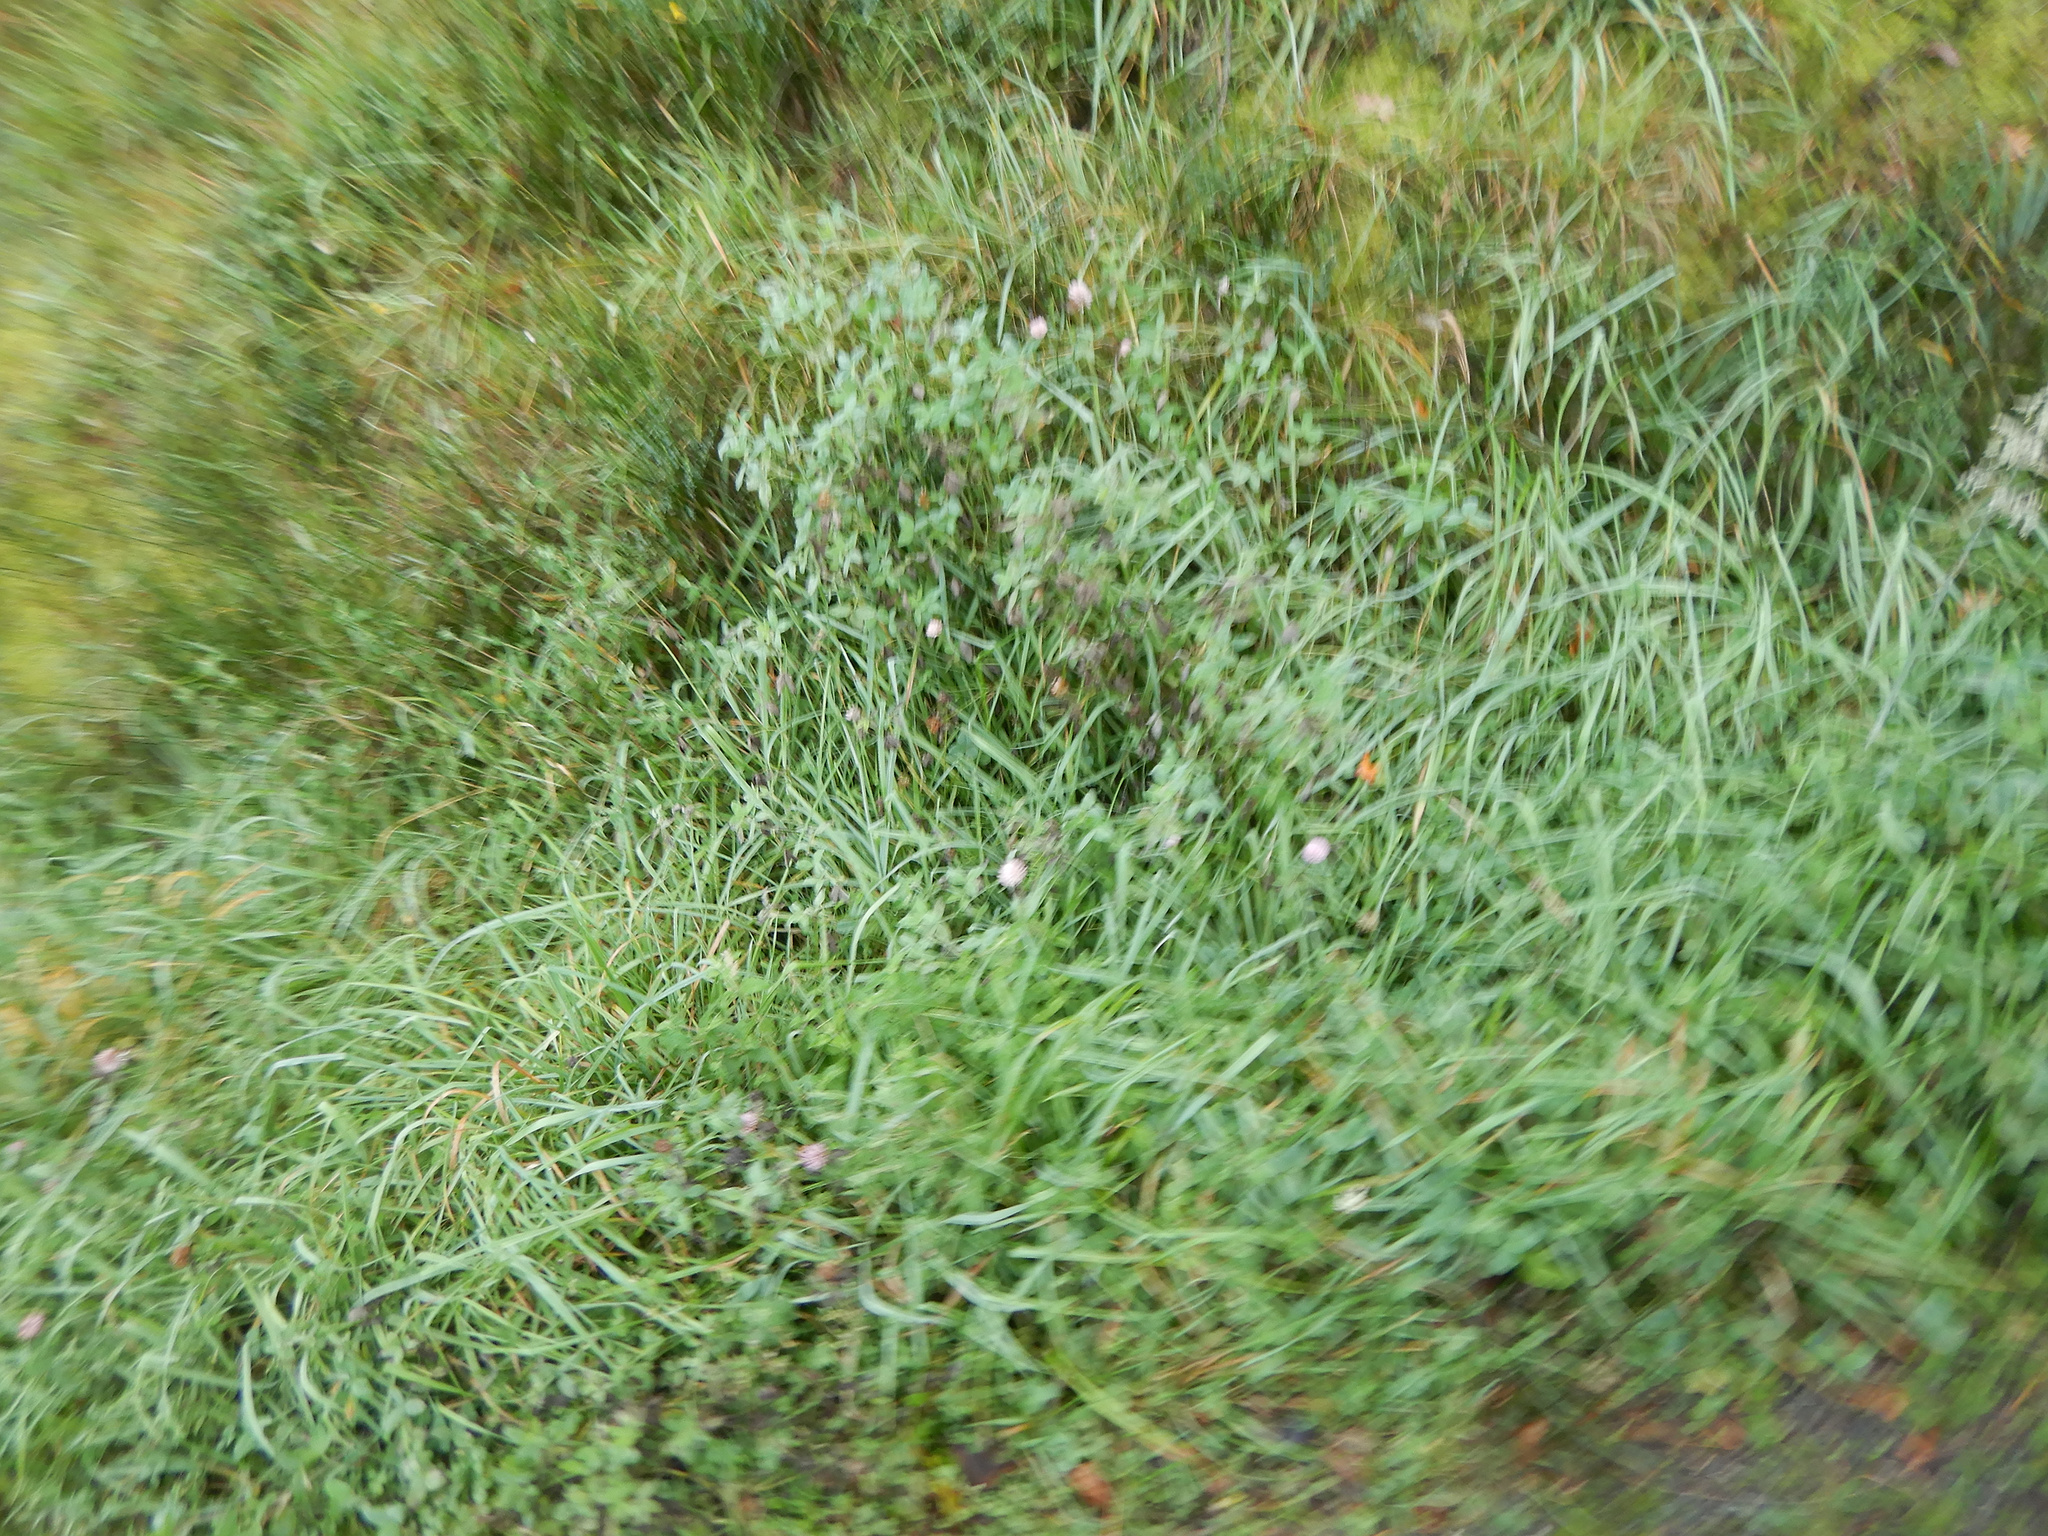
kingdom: Plantae
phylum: Tracheophyta
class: Magnoliopsida
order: Fabales
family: Fabaceae
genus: Trifolium
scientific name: Trifolium pratense
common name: Red clover
